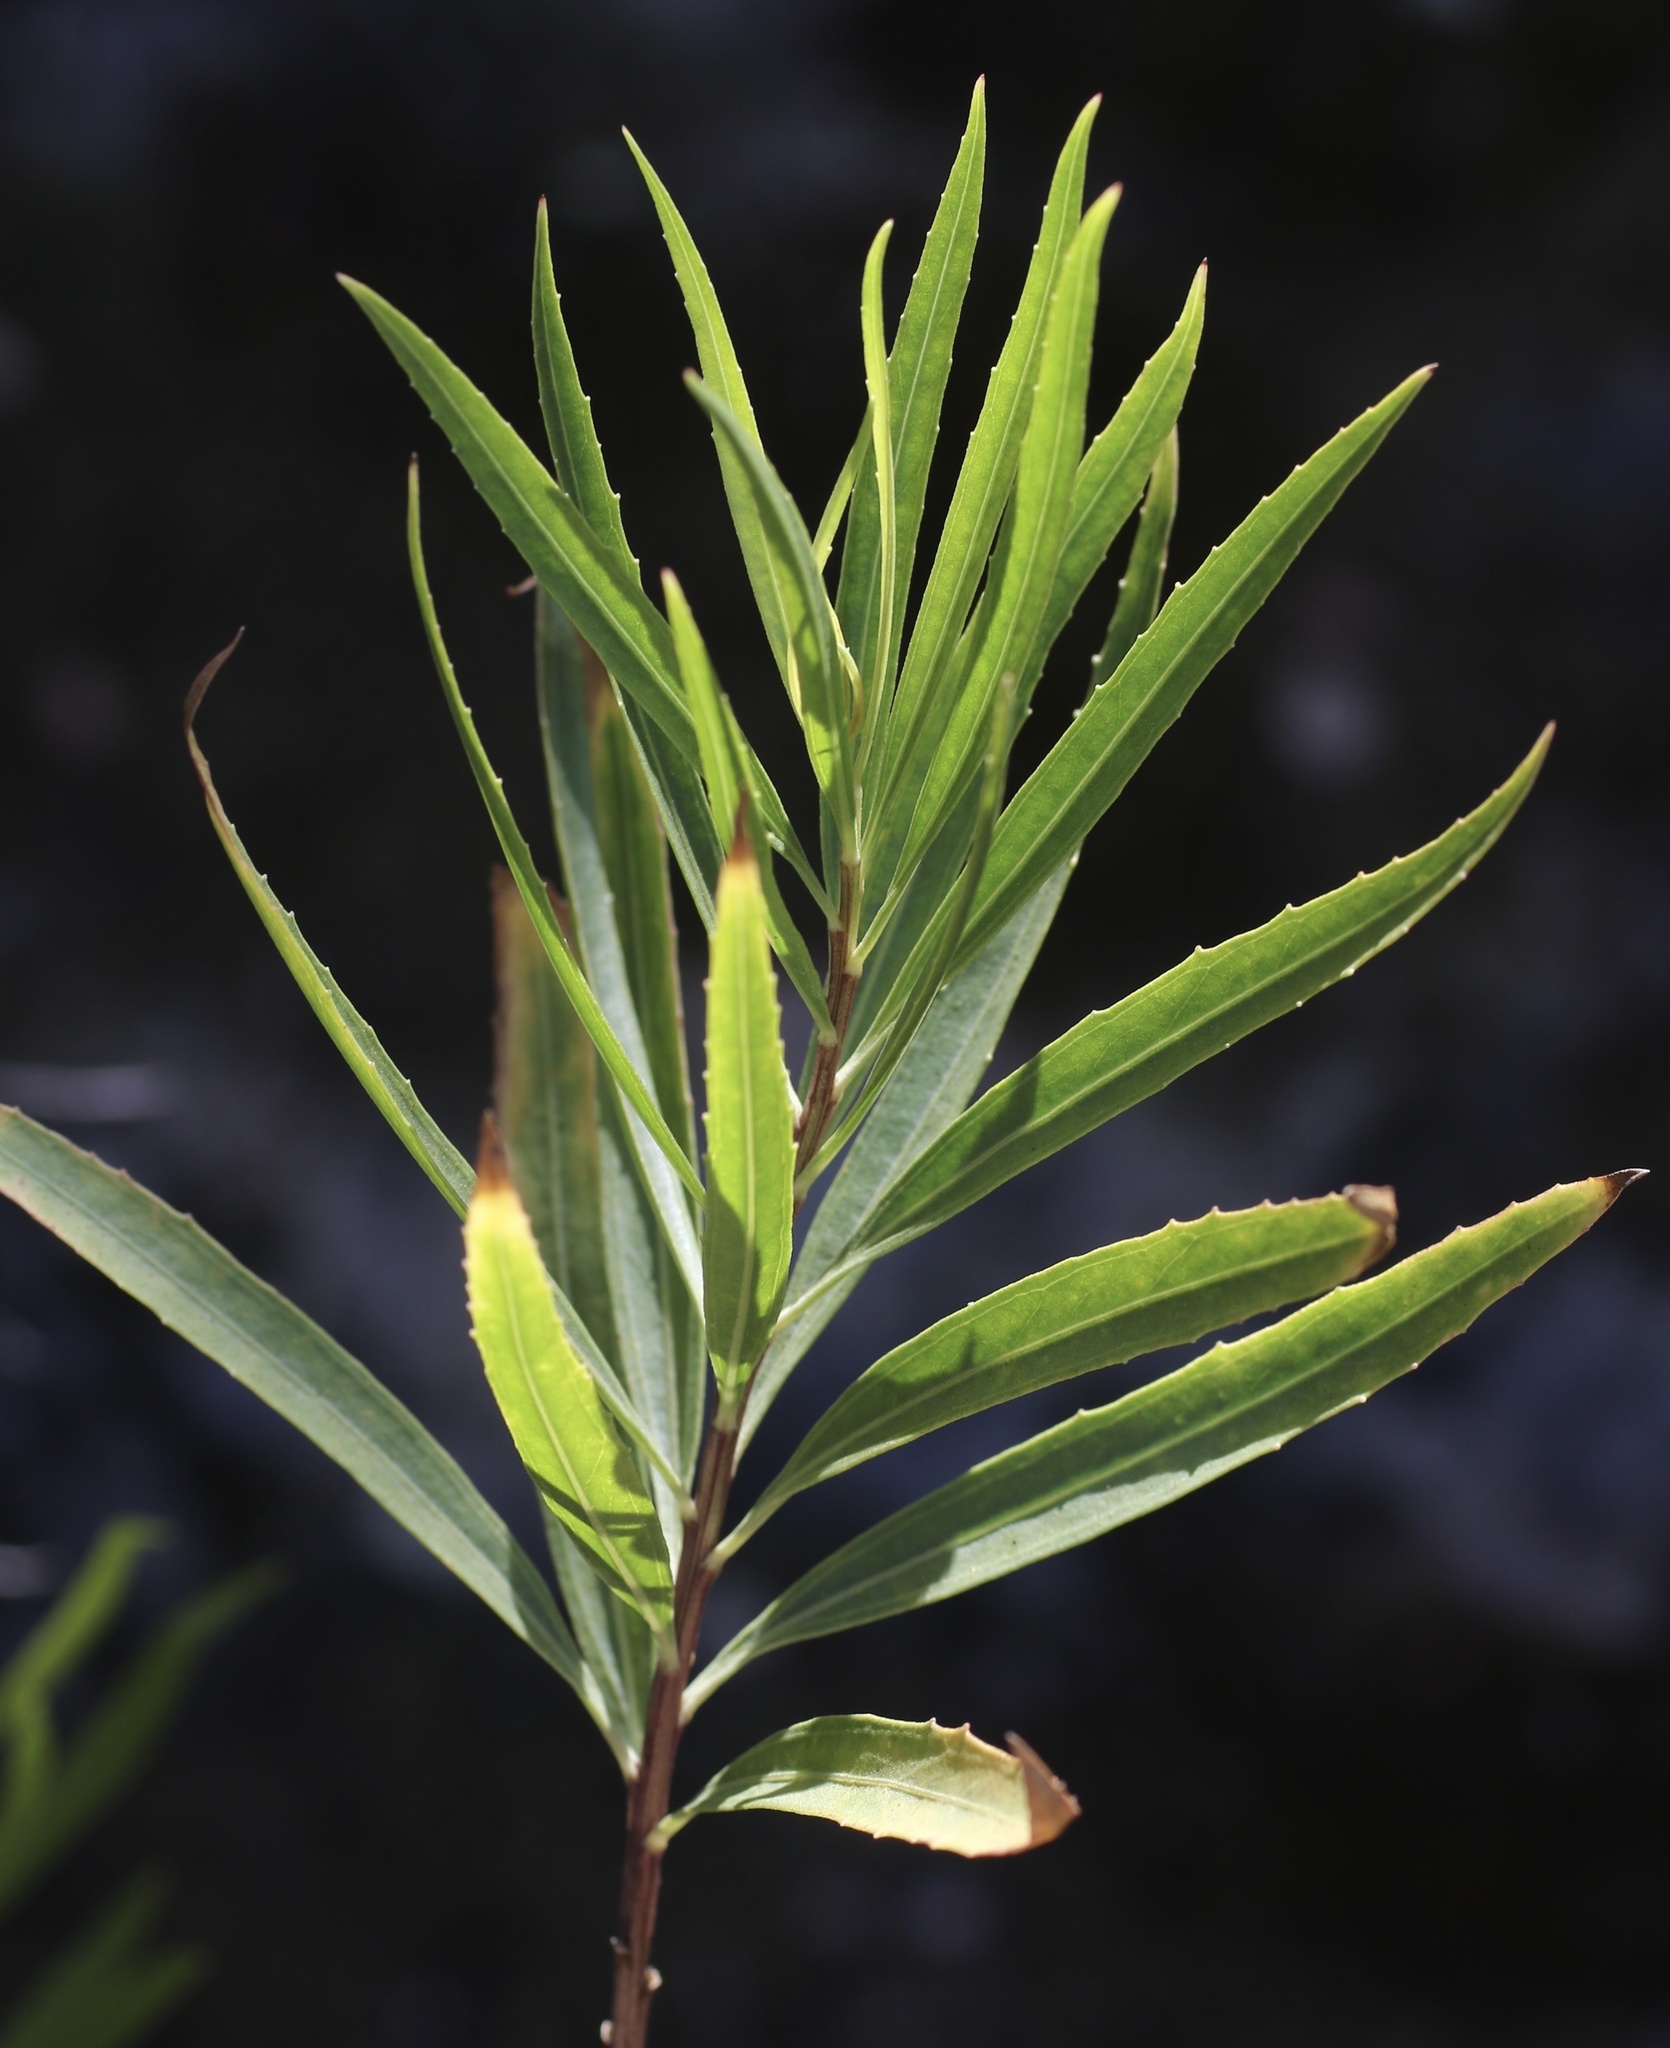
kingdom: Plantae
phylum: Tracheophyta
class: Magnoliopsida
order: Asterales
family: Asteraceae
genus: Baccharis
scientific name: Baccharis salicifolia
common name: Sticky baccharis
